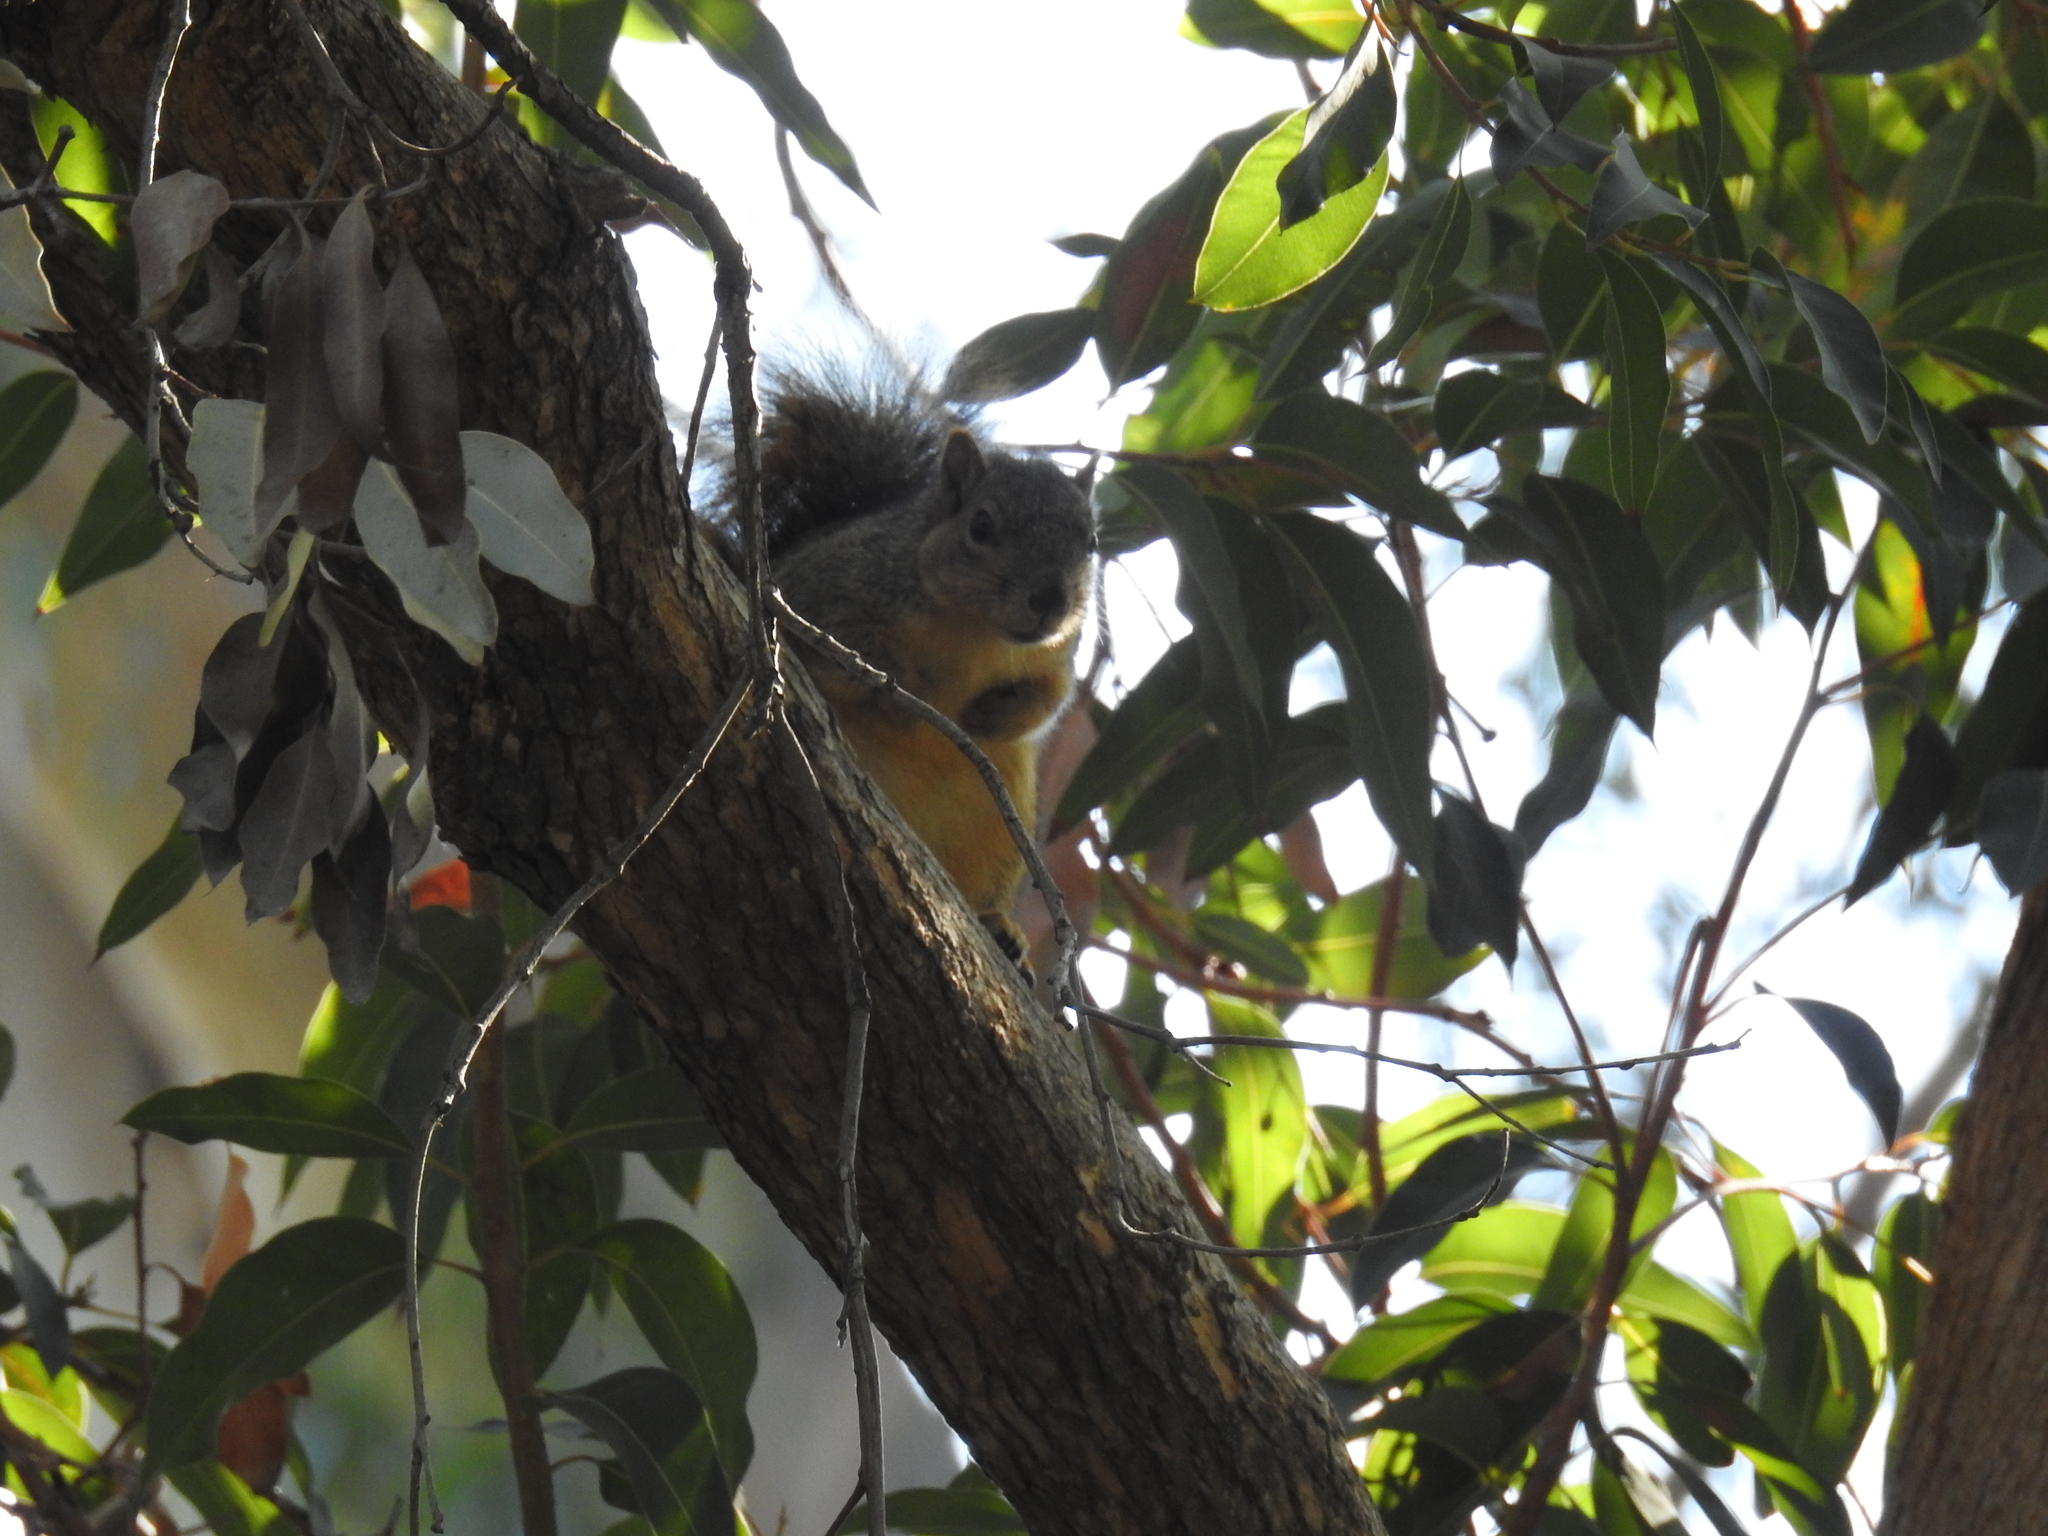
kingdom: Animalia
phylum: Chordata
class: Mammalia
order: Rodentia
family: Sciuridae
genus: Sciurus
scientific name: Sciurus niger
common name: Fox squirrel
